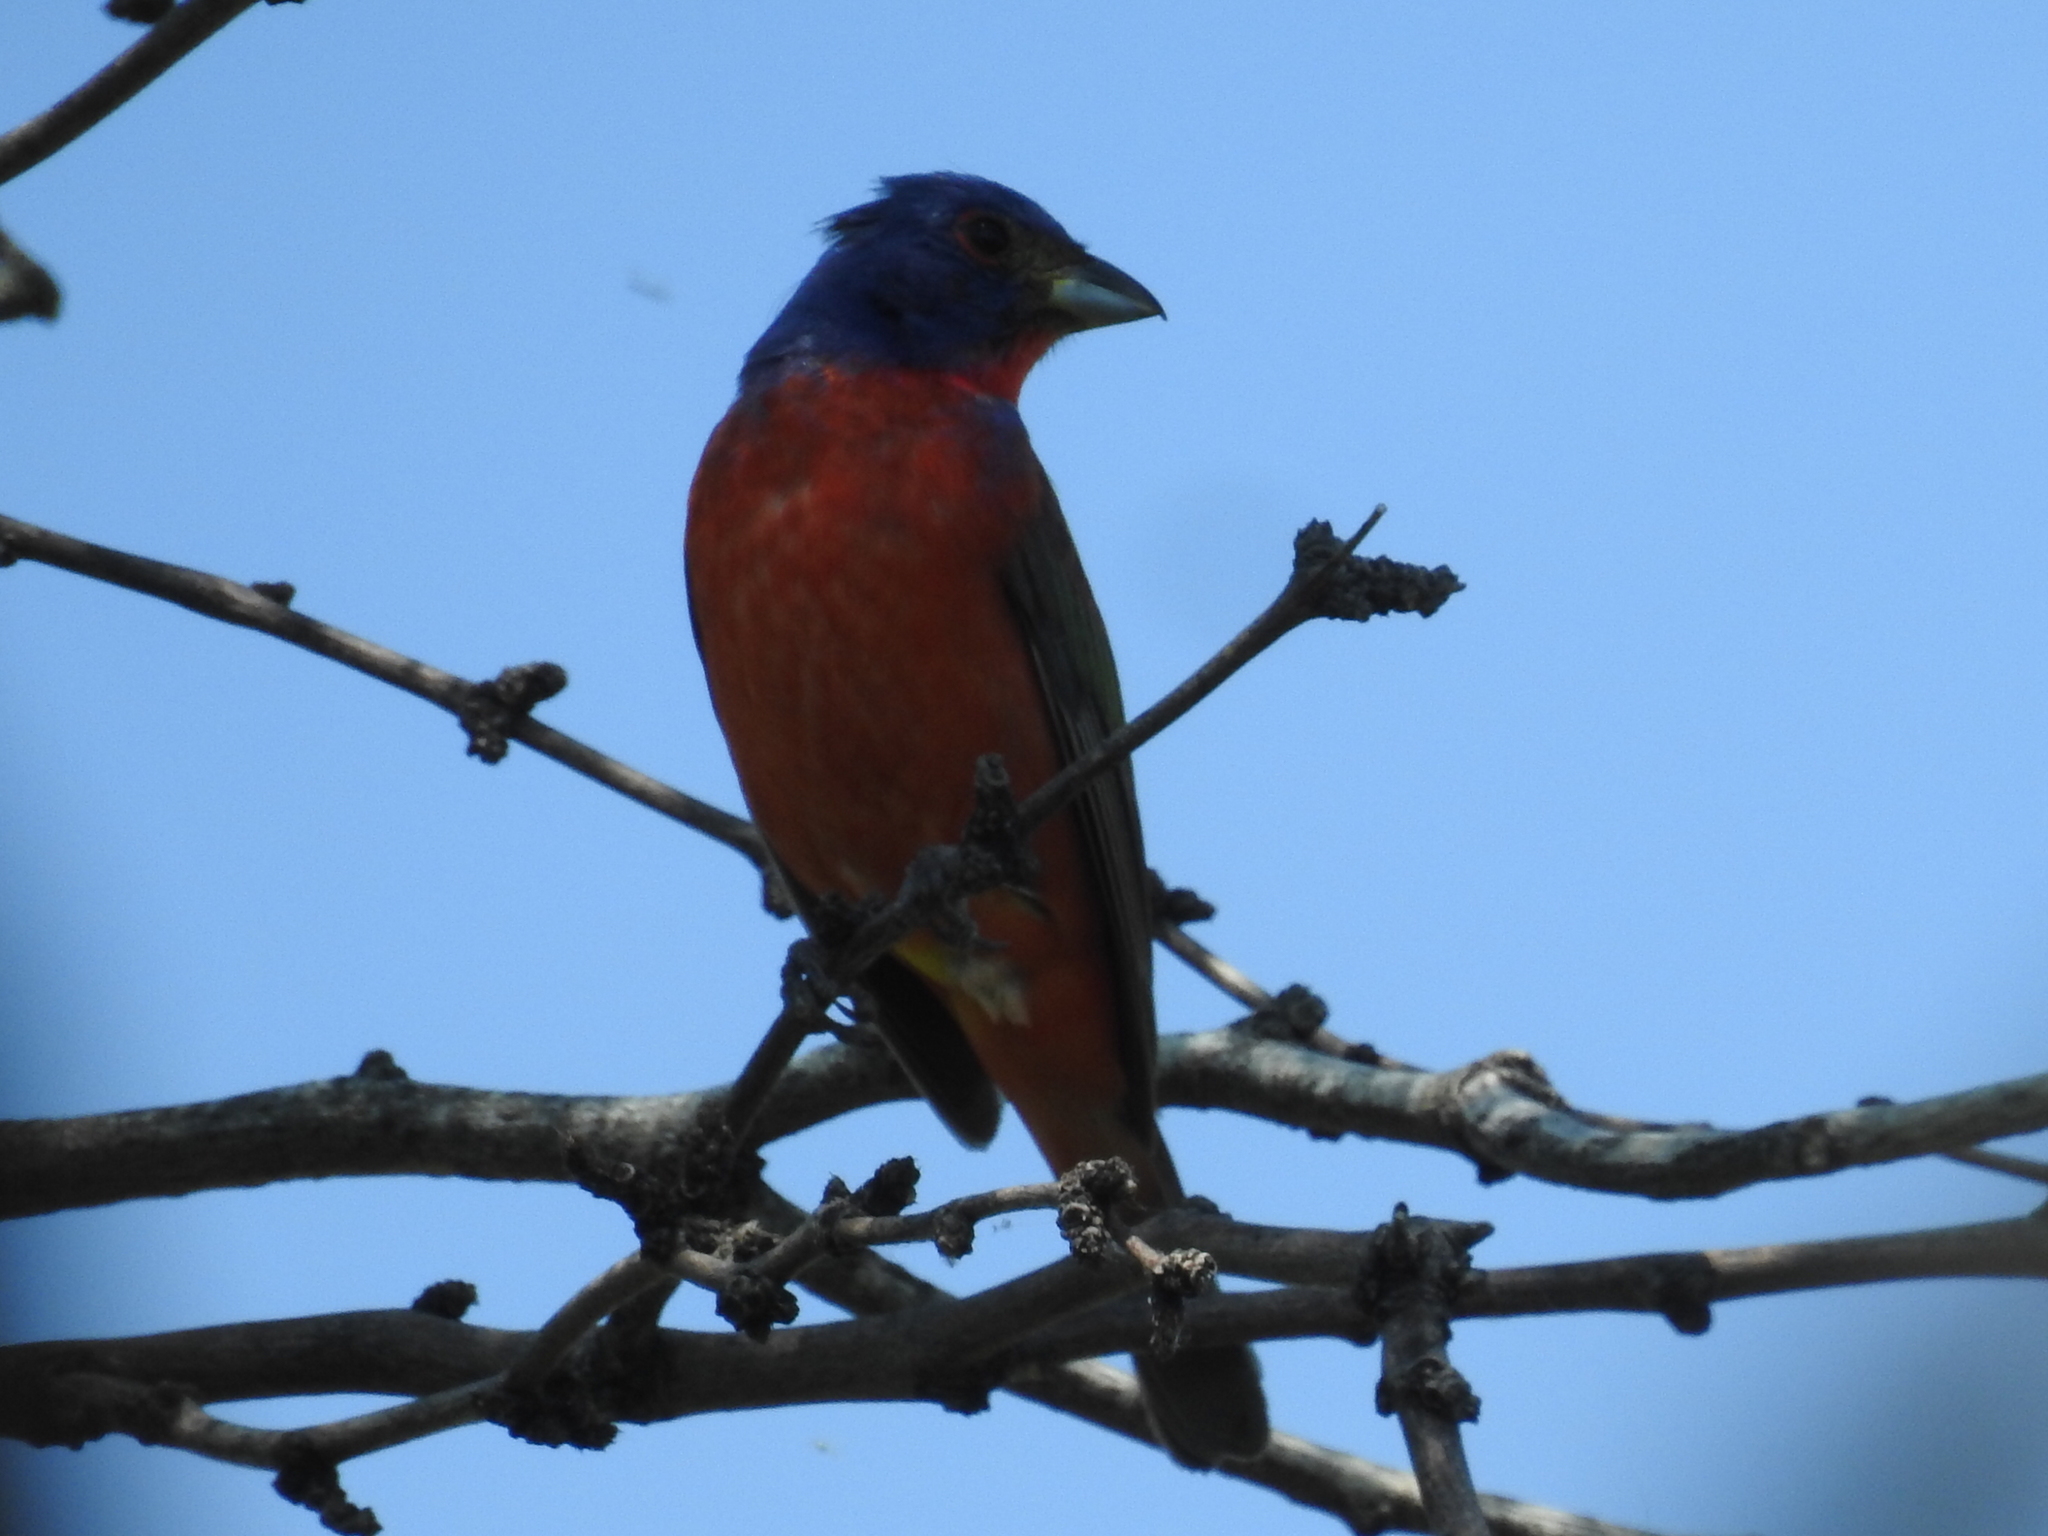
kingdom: Animalia
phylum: Chordata
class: Aves
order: Passeriformes
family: Cardinalidae
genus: Passerina
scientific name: Passerina ciris
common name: Painted bunting
